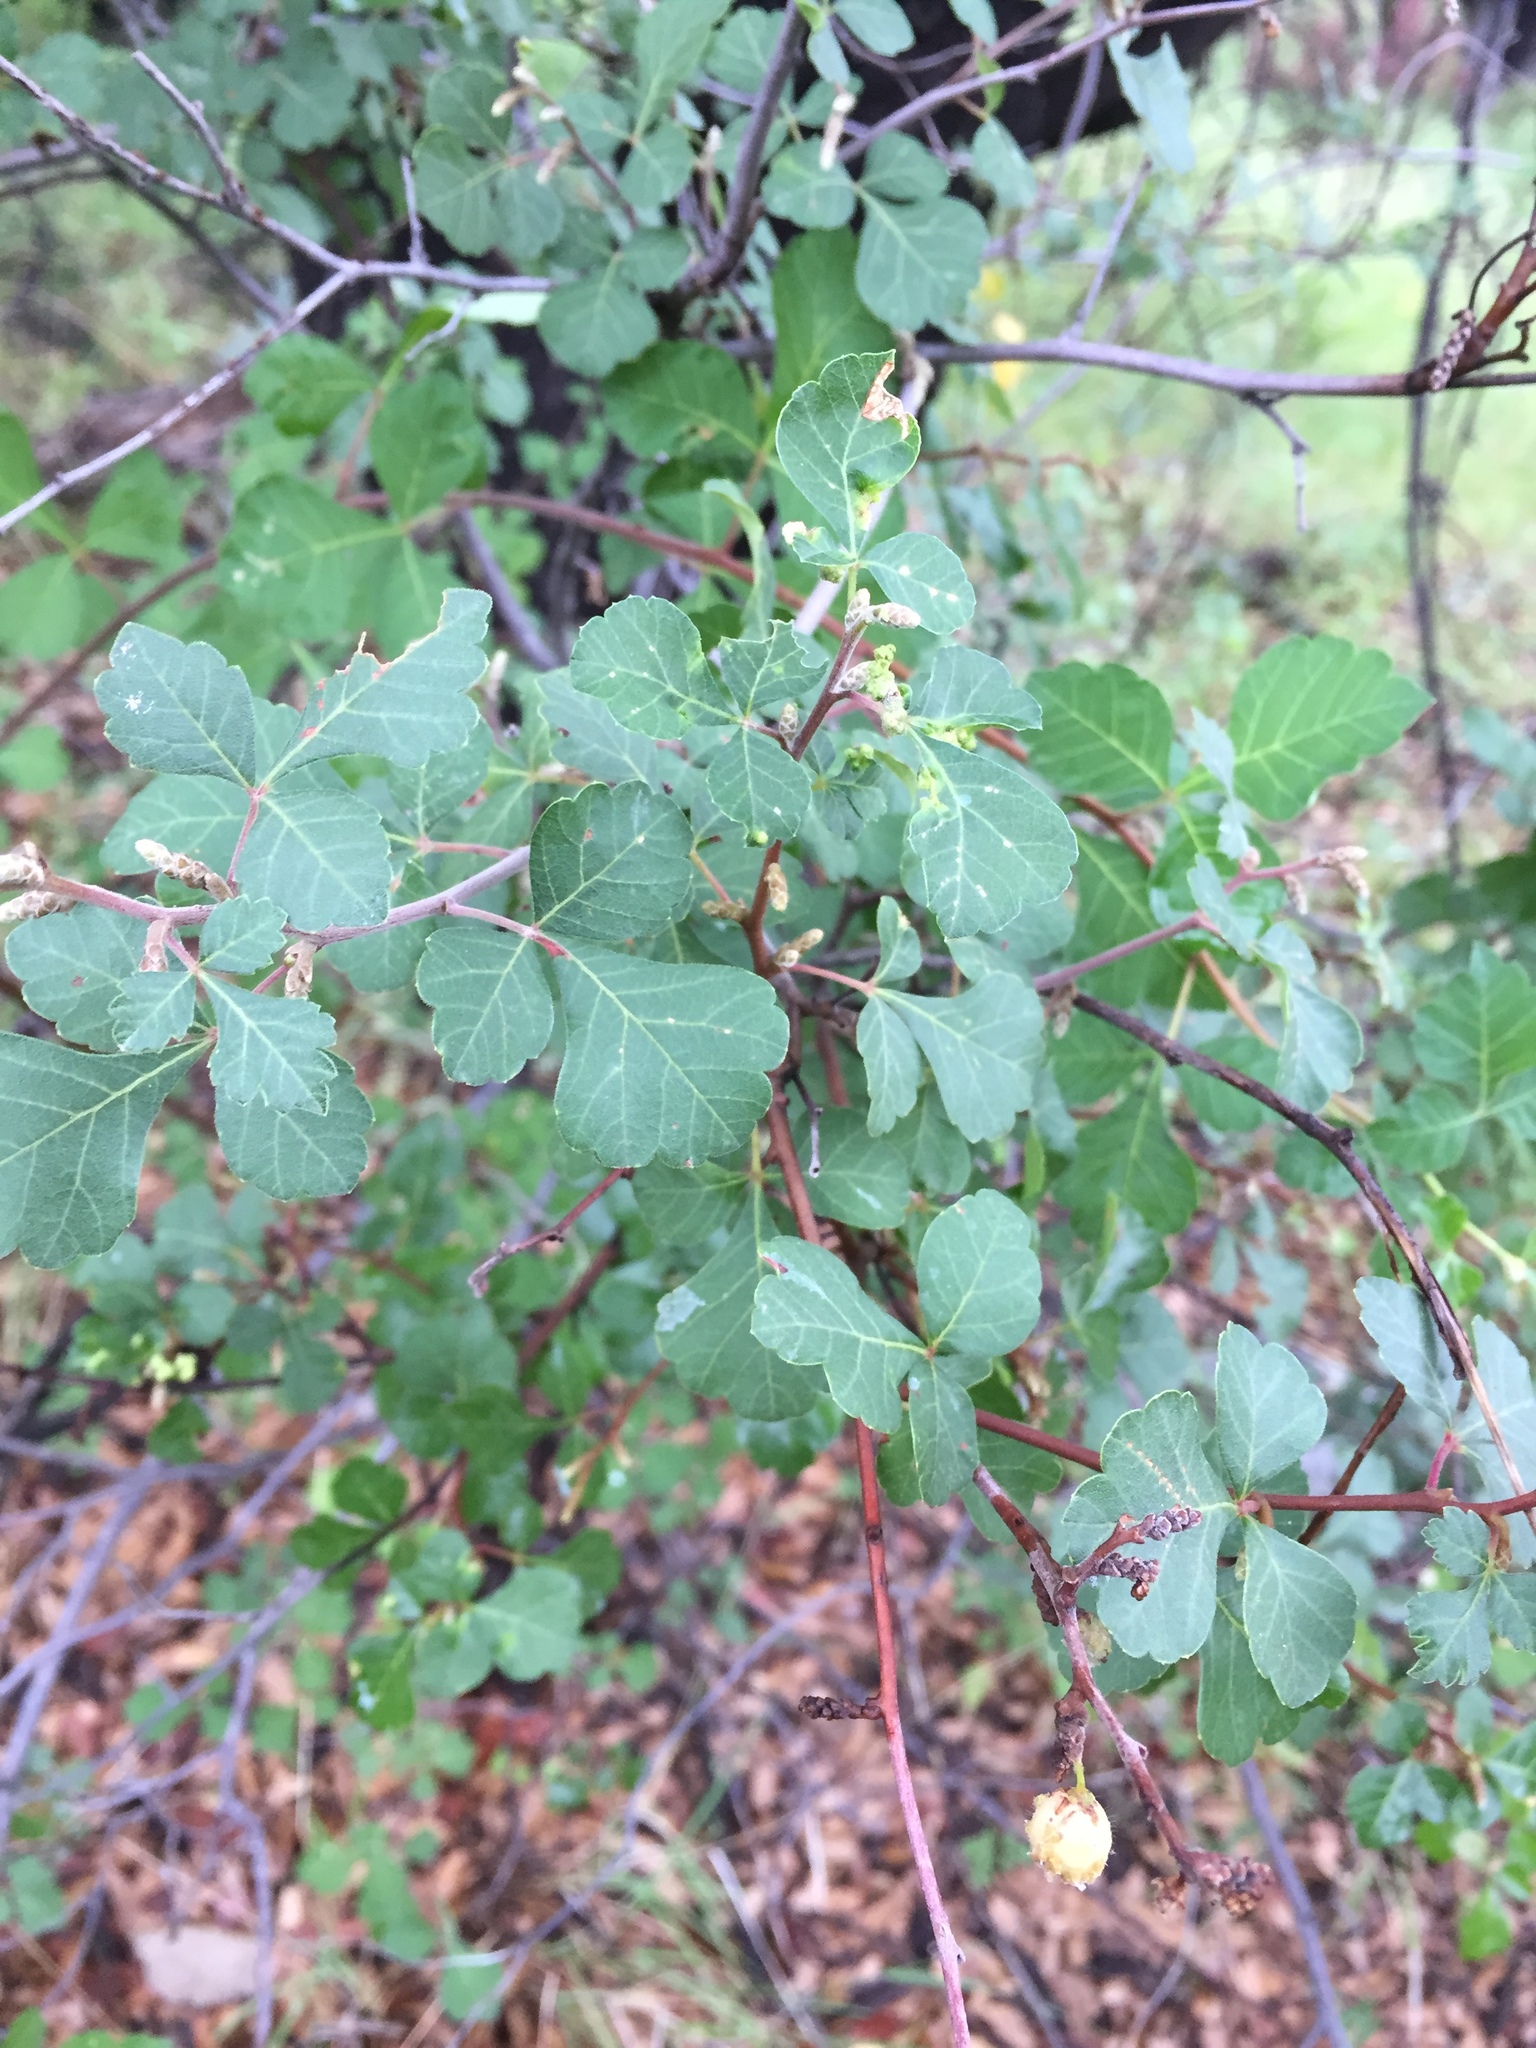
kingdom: Plantae
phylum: Tracheophyta
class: Magnoliopsida
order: Sapindales
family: Anacardiaceae
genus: Rhus
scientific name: Rhus aromatica
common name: Aromatic sumac
